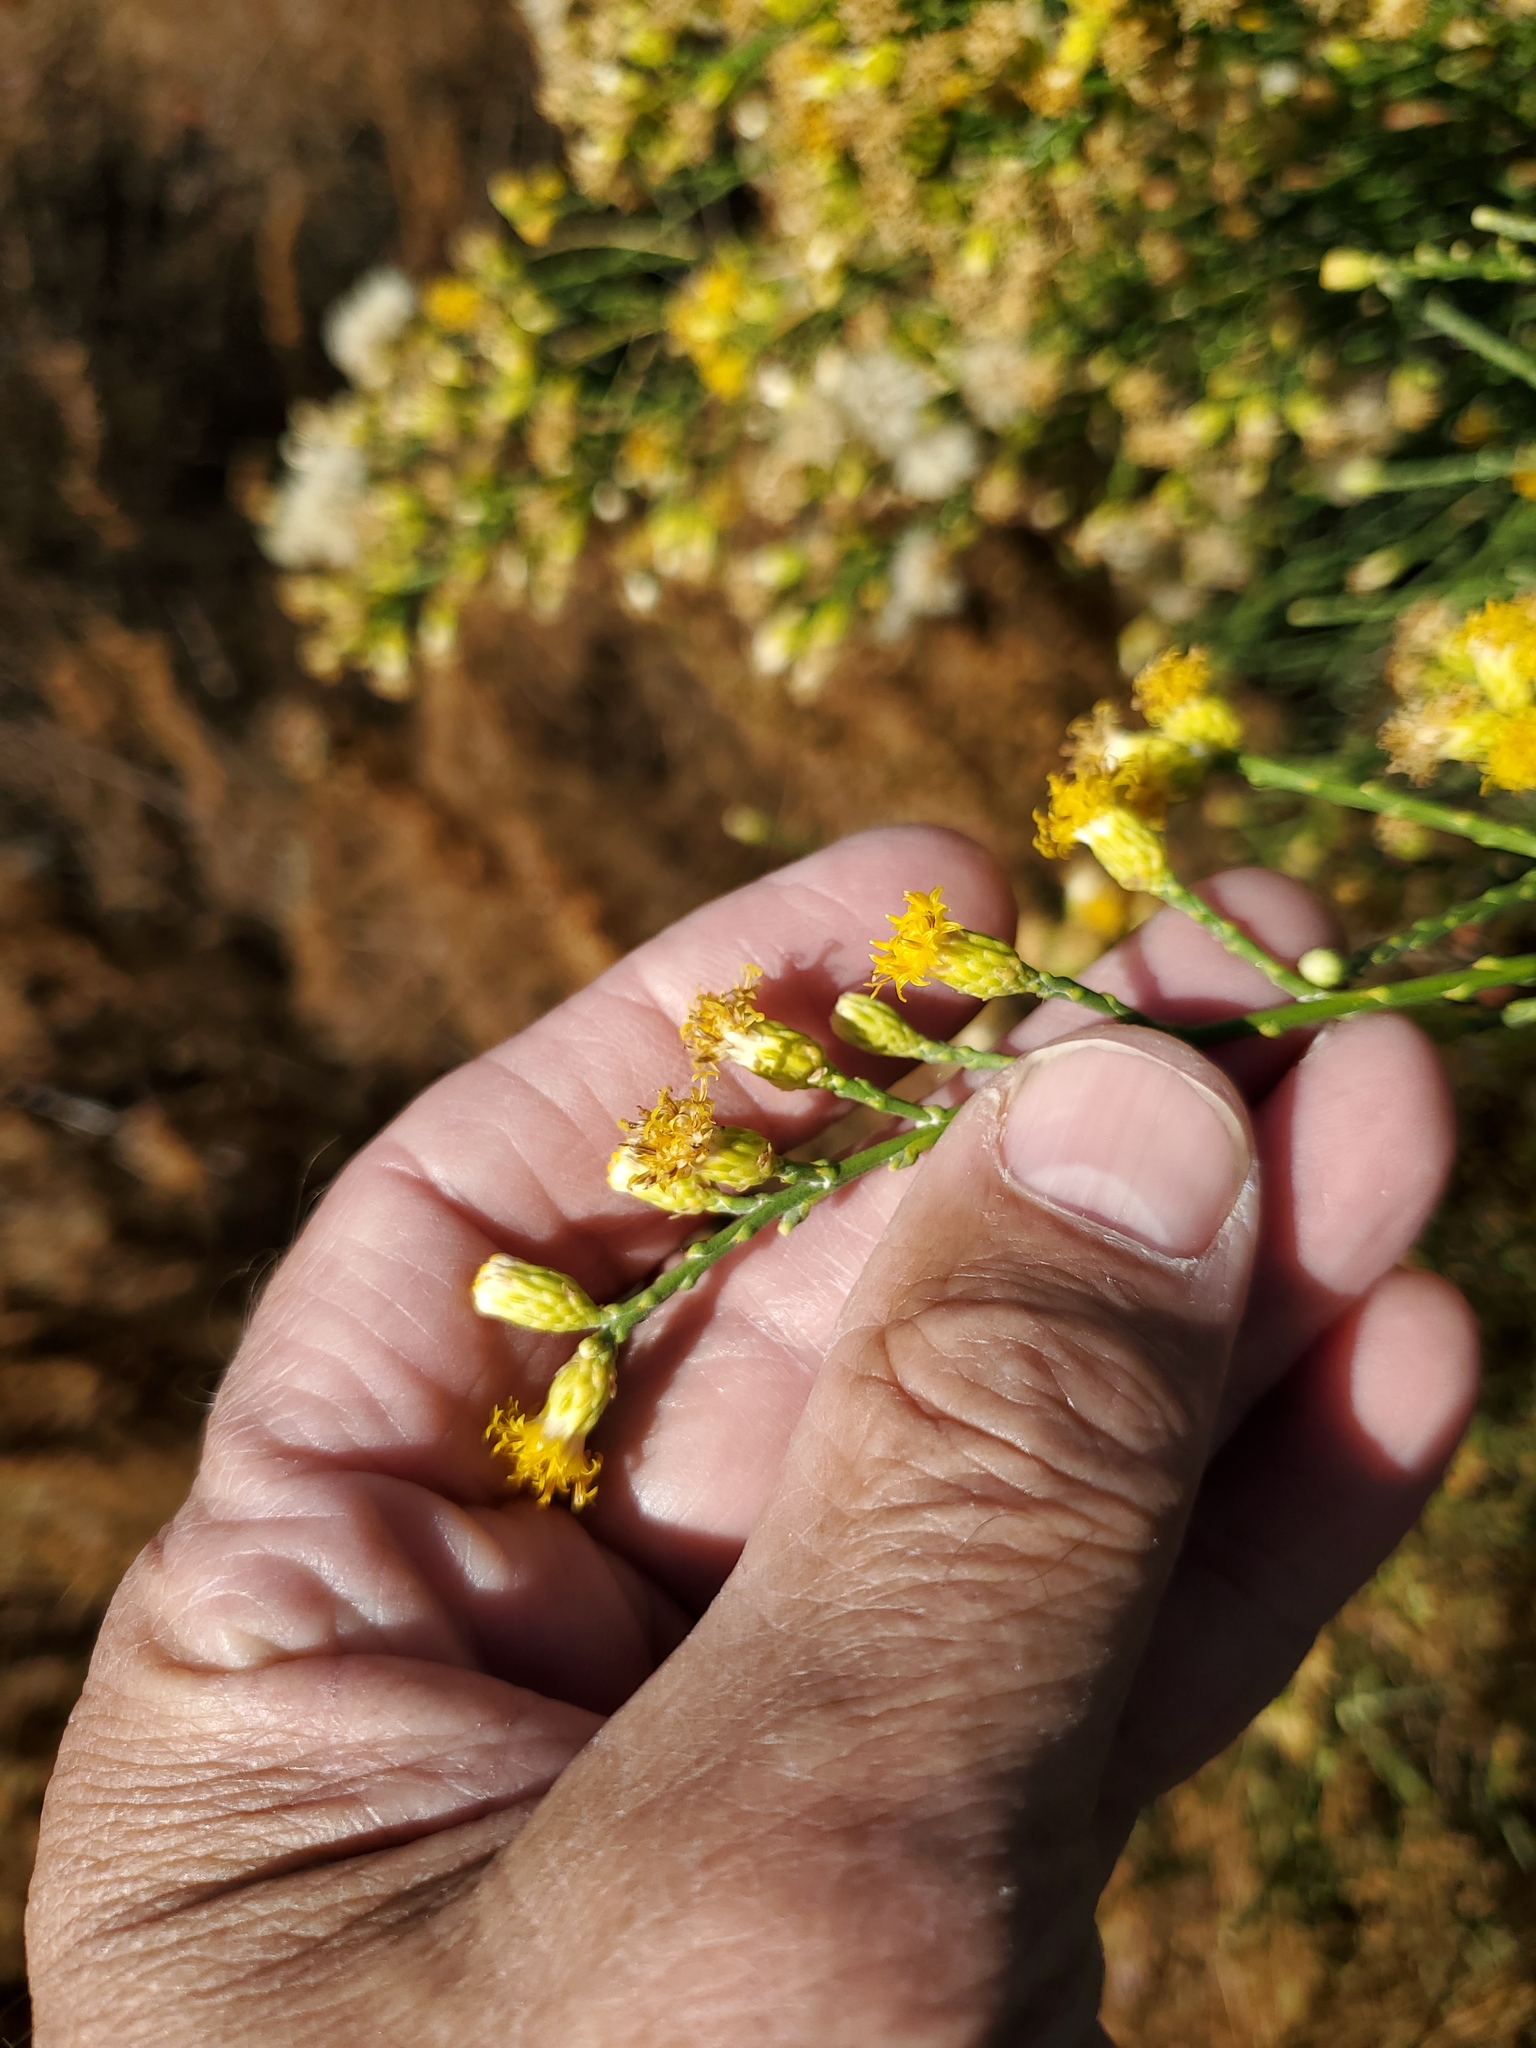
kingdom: Plantae
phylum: Tracheophyta
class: Magnoliopsida
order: Asterales
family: Asteraceae
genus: Lepidospartum
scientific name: Lepidospartum squamatum
